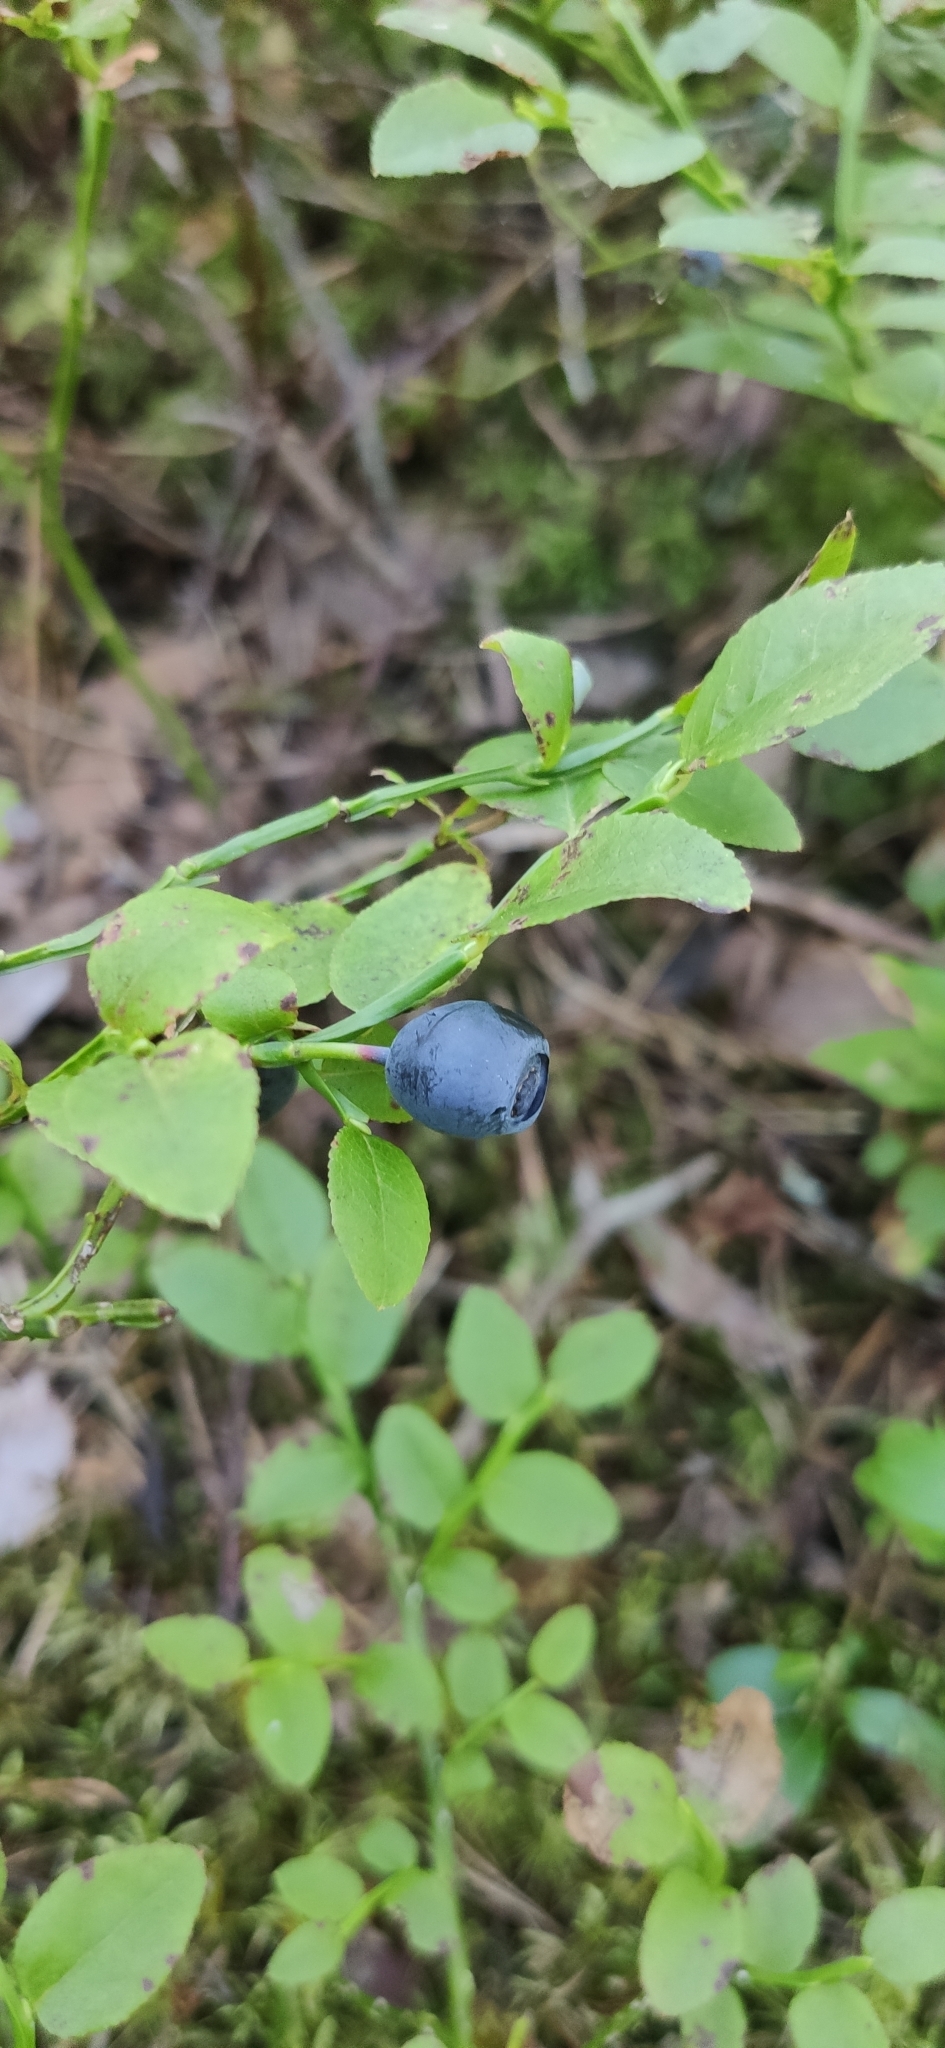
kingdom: Plantae
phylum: Tracheophyta
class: Magnoliopsida
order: Ericales
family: Ericaceae
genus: Vaccinium
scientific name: Vaccinium myrtillus
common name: Bilberry
